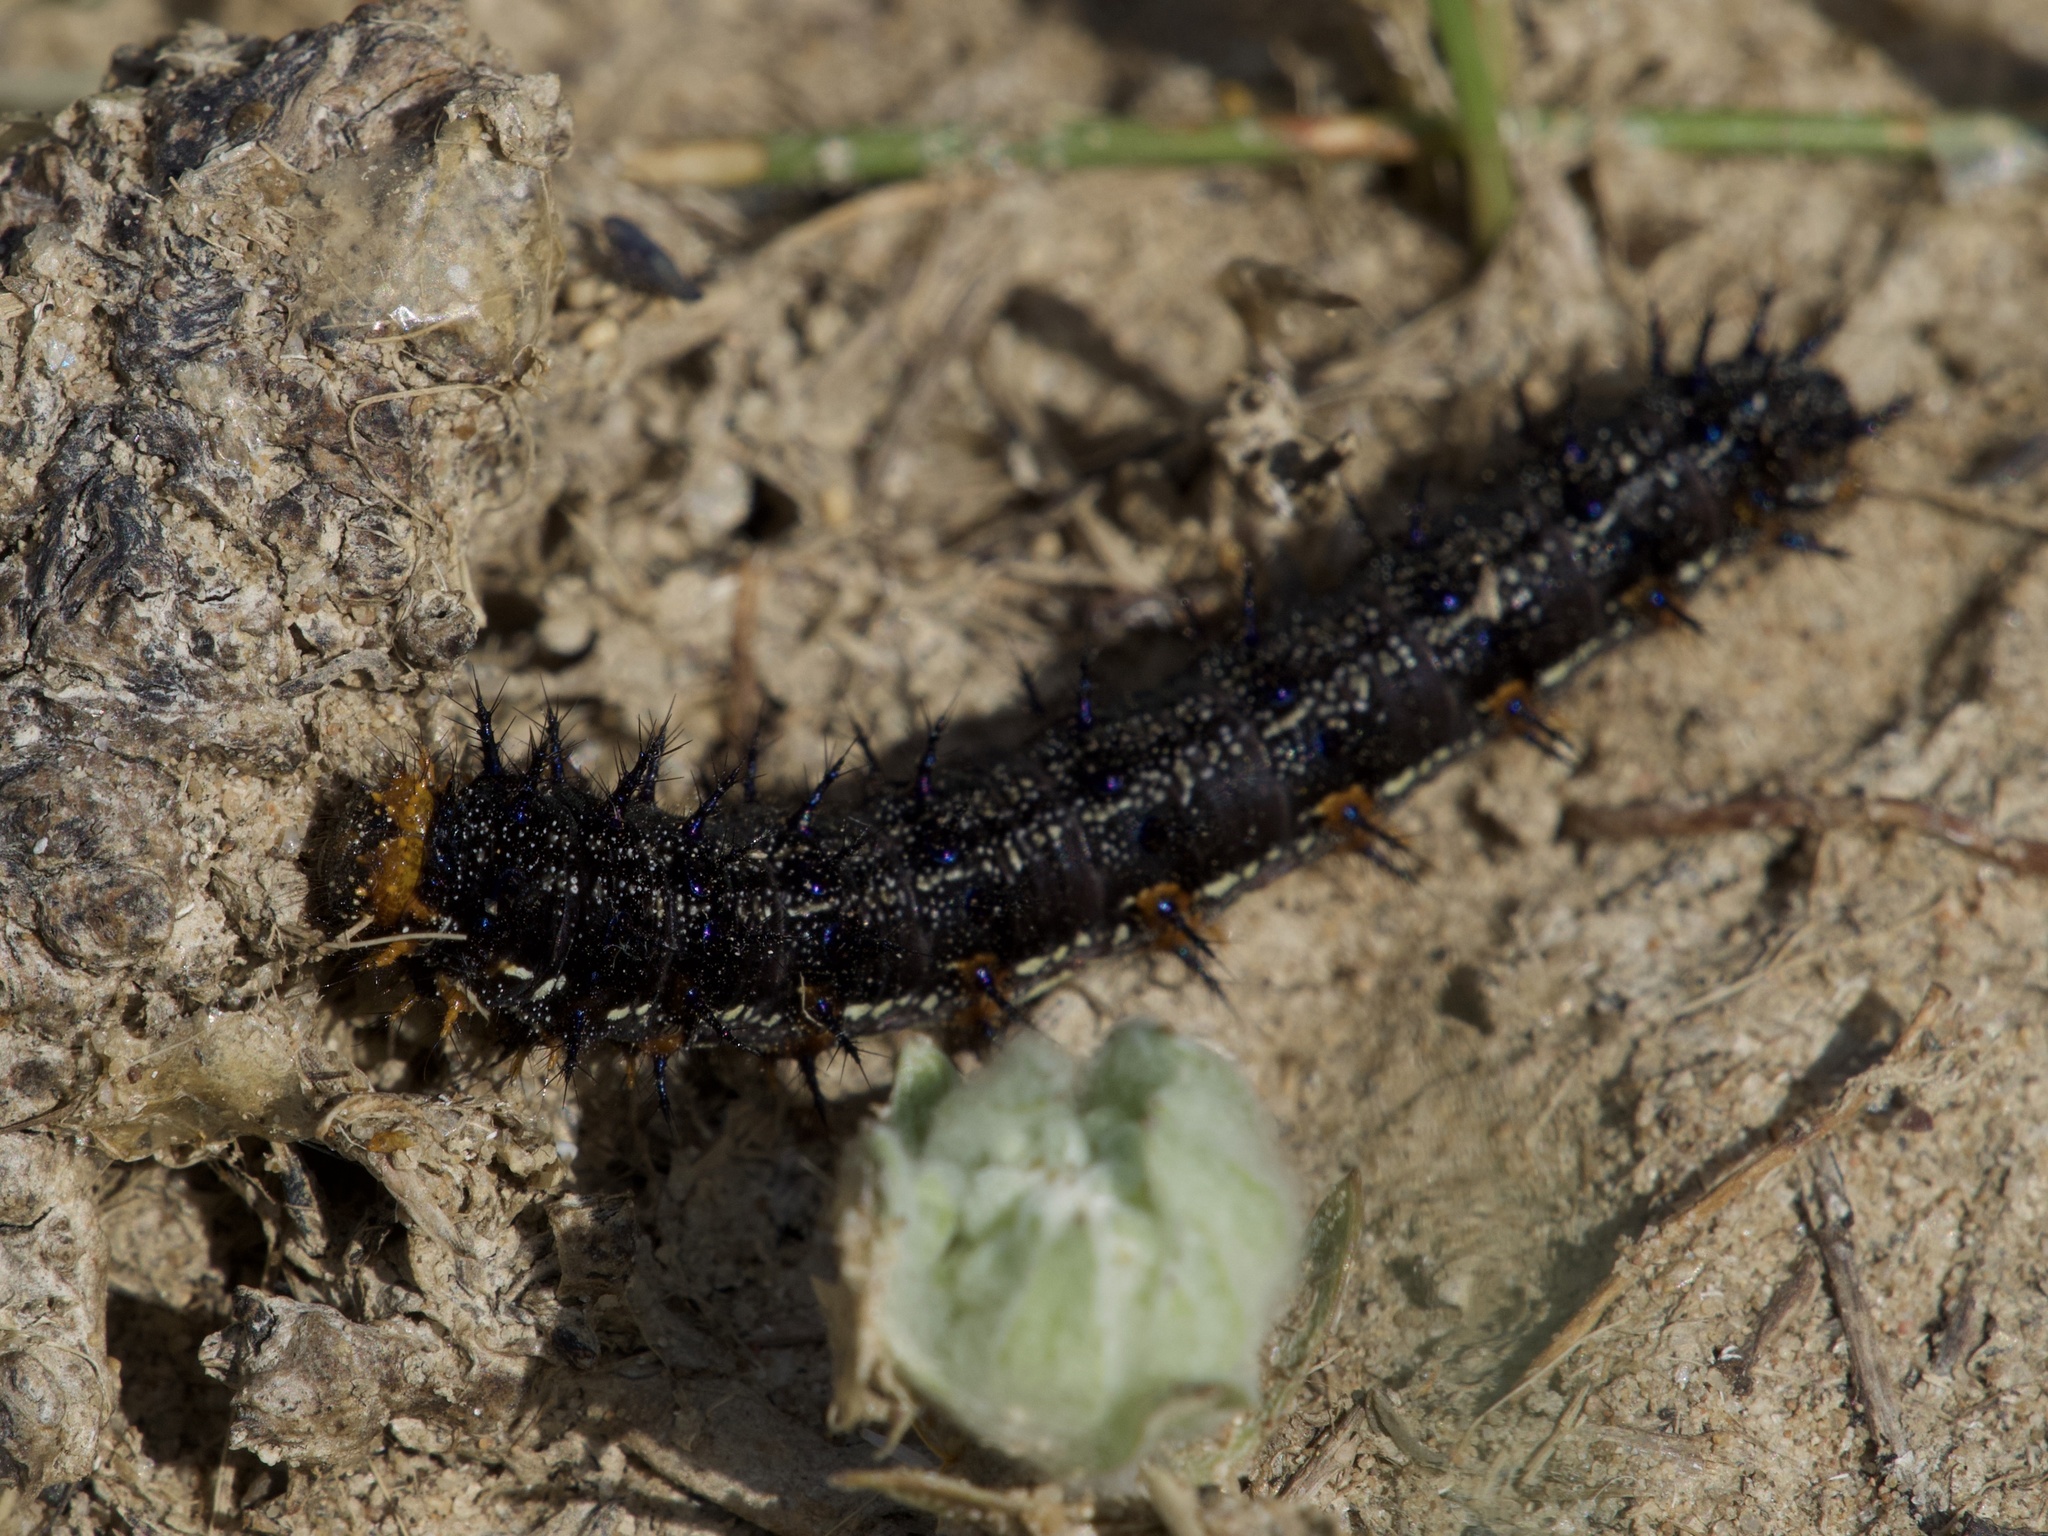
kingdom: Animalia
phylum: Arthropoda
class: Insecta
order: Lepidoptera
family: Nymphalidae
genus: Junonia
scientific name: Junonia grisea
